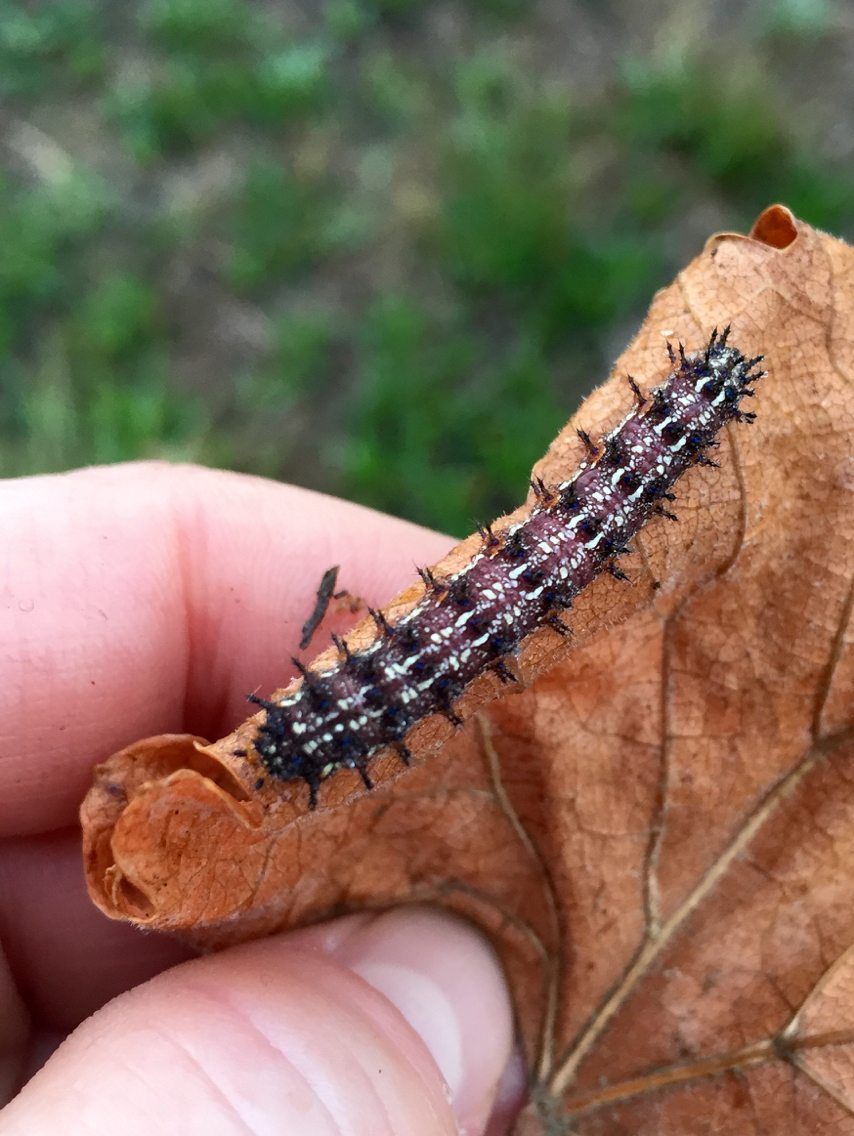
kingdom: Animalia
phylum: Arthropoda
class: Insecta
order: Lepidoptera
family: Nymphalidae
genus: Junonia
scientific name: Junonia grisea
